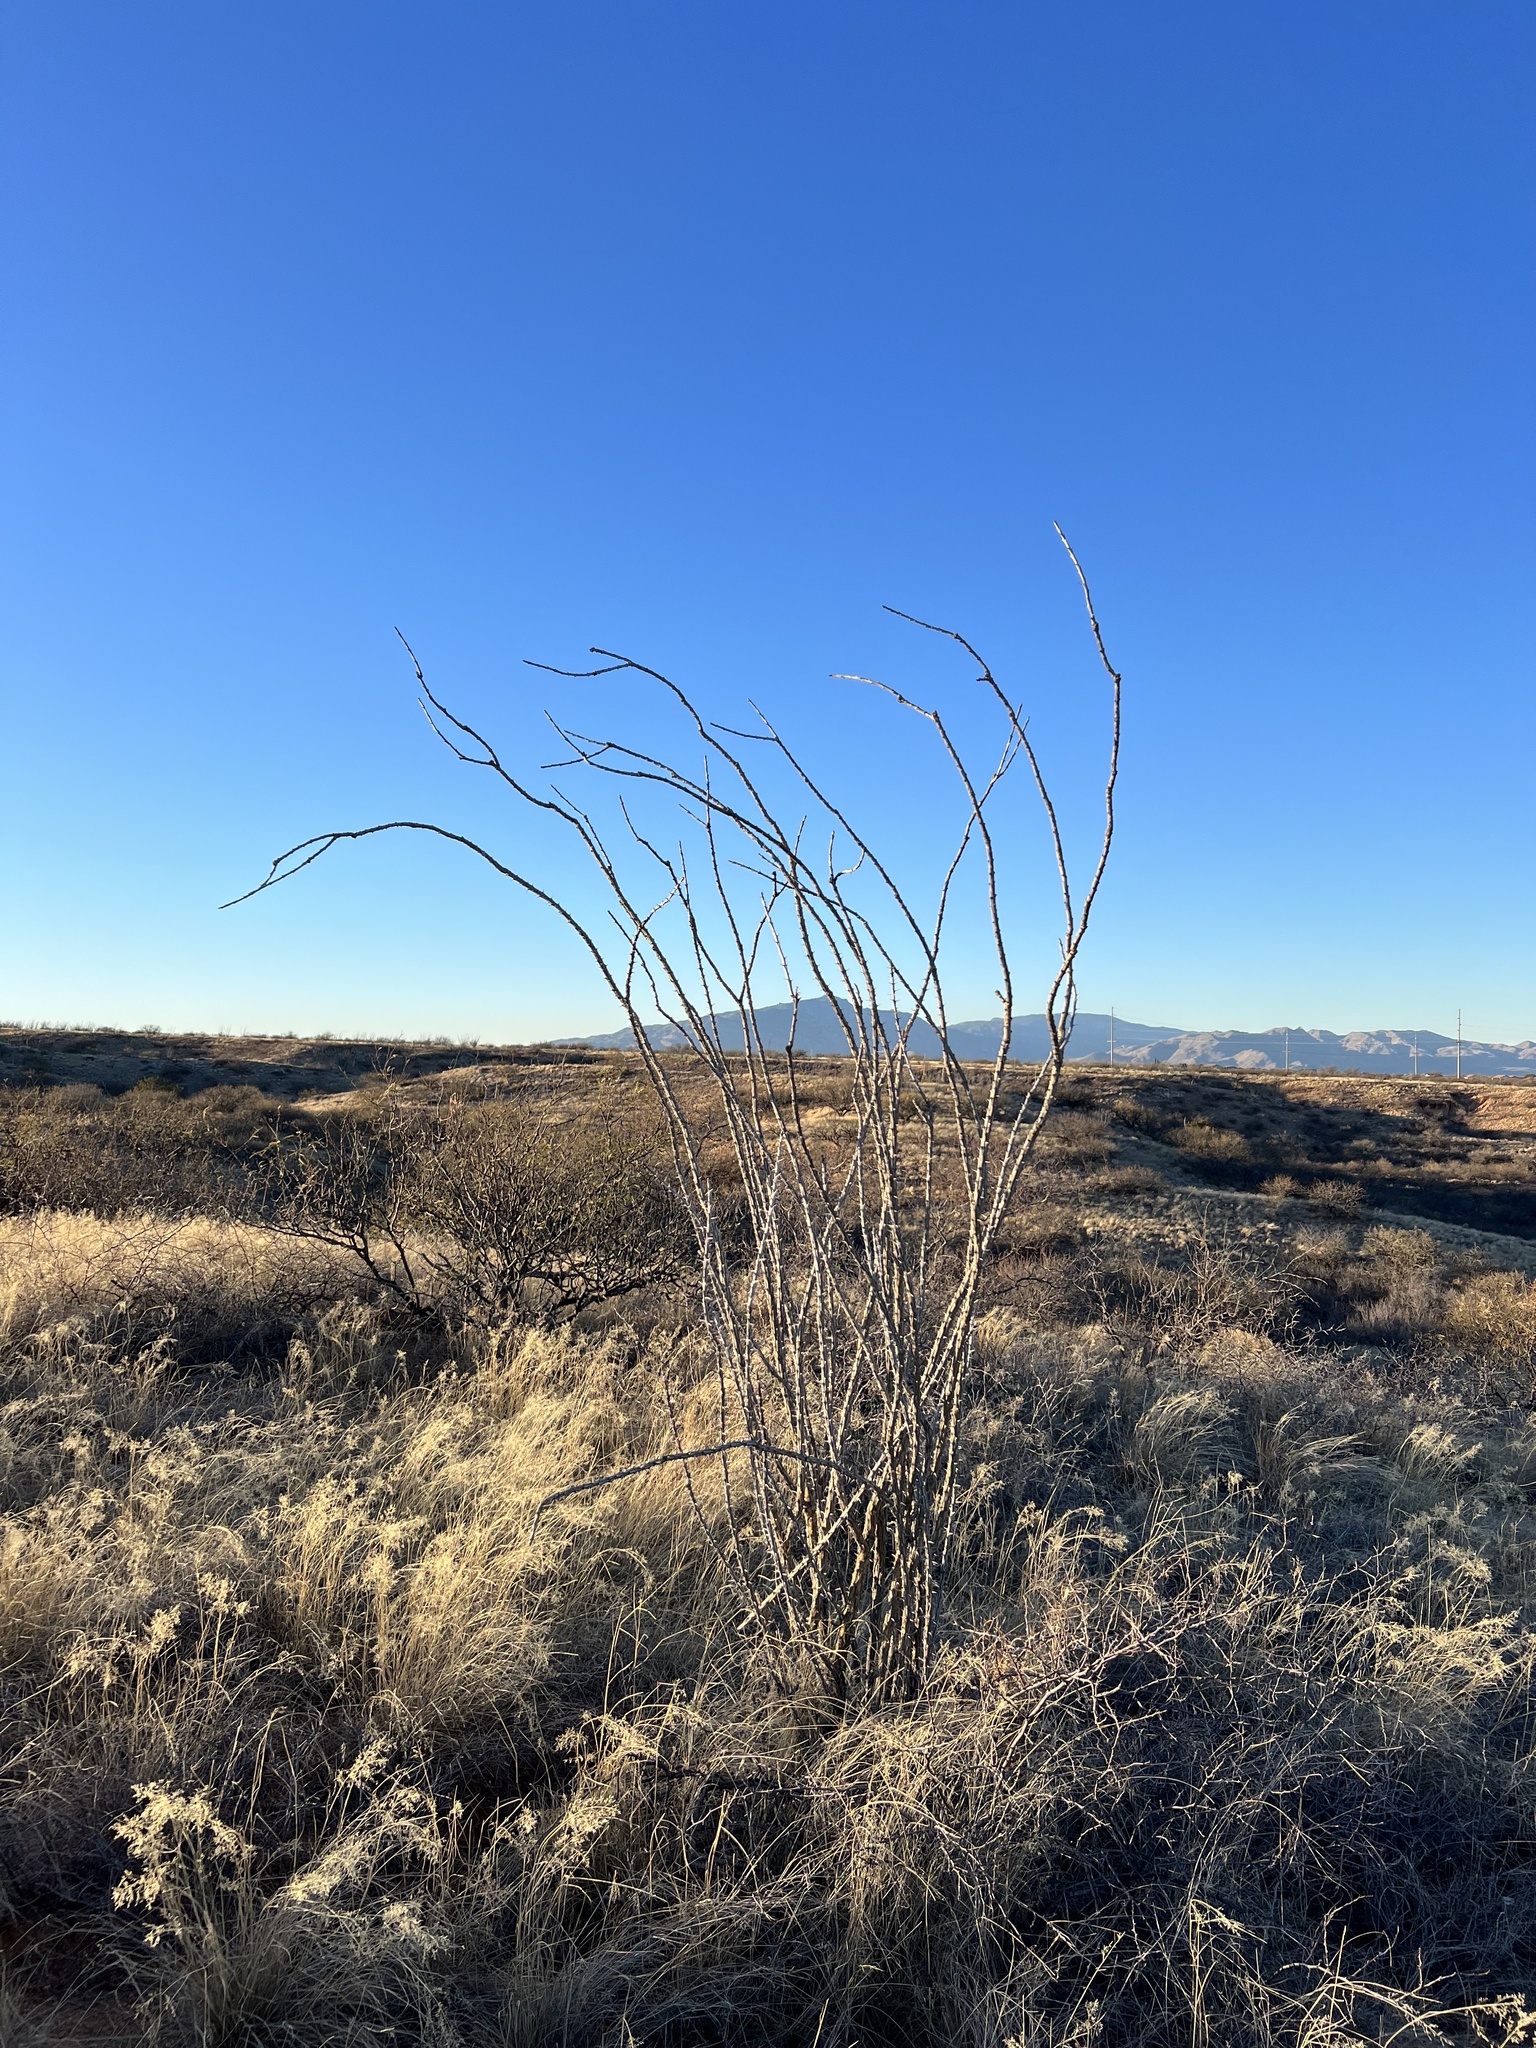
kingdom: Plantae
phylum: Tracheophyta
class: Magnoliopsida
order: Ericales
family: Fouquieriaceae
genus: Fouquieria
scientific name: Fouquieria splendens
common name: Vine-cactus
